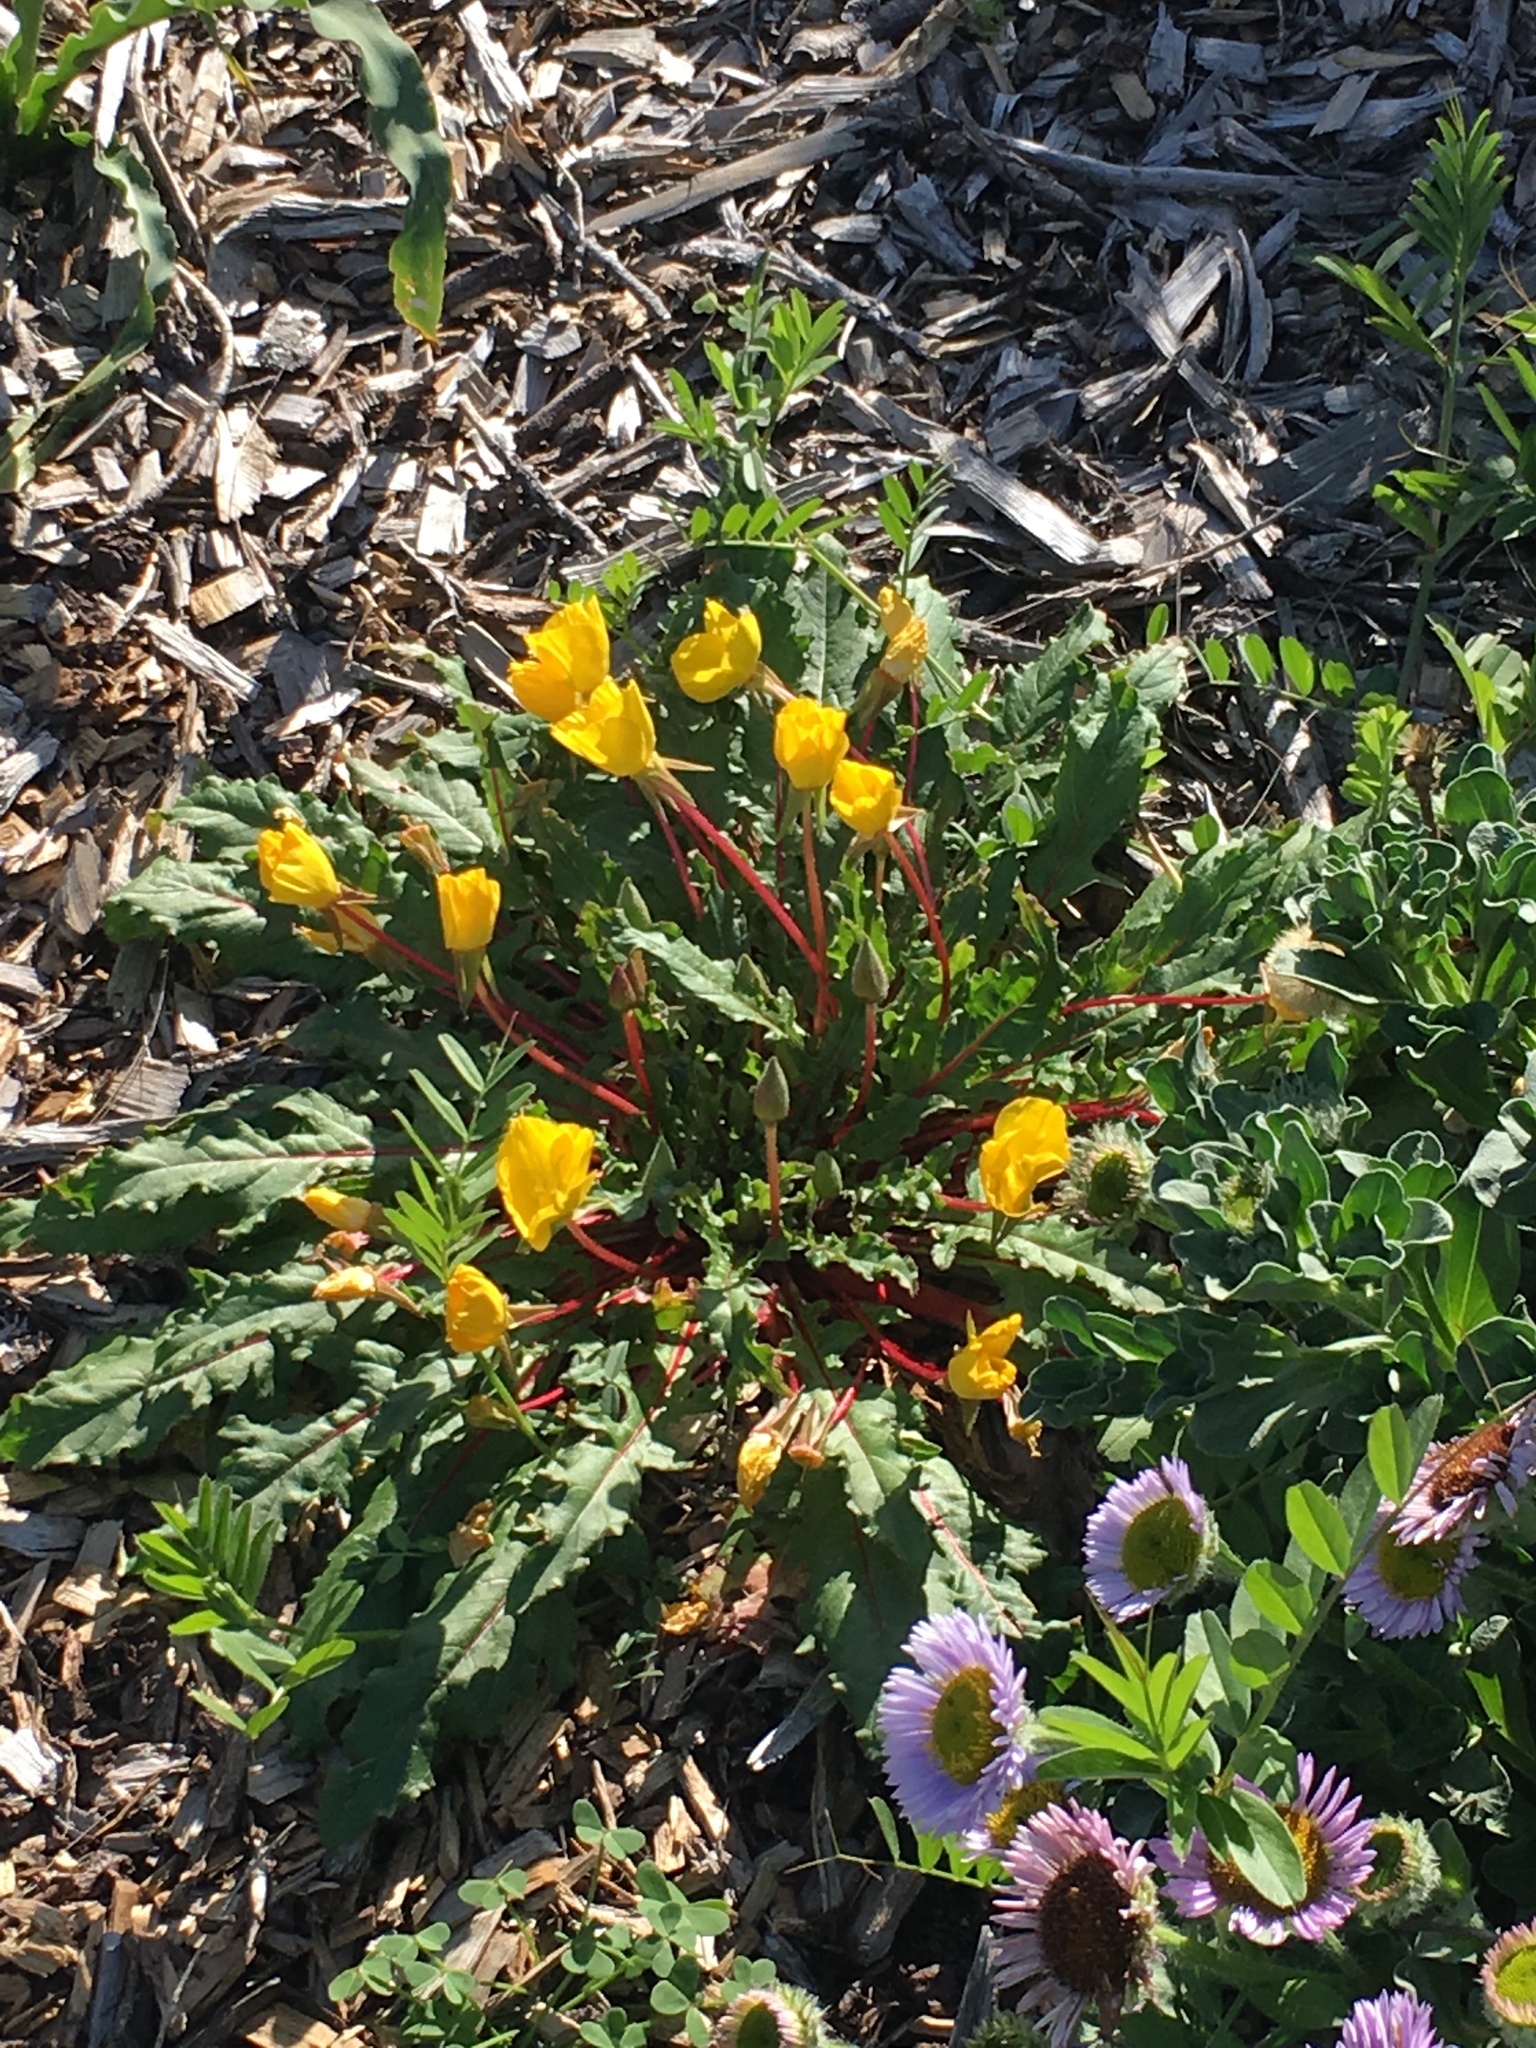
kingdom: Plantae
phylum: Tracheophyta
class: Magnoliopsida
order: Myrtales
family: Onagraceae
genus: Taraxia
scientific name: Taraxia ovata
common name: Goldeneggs
